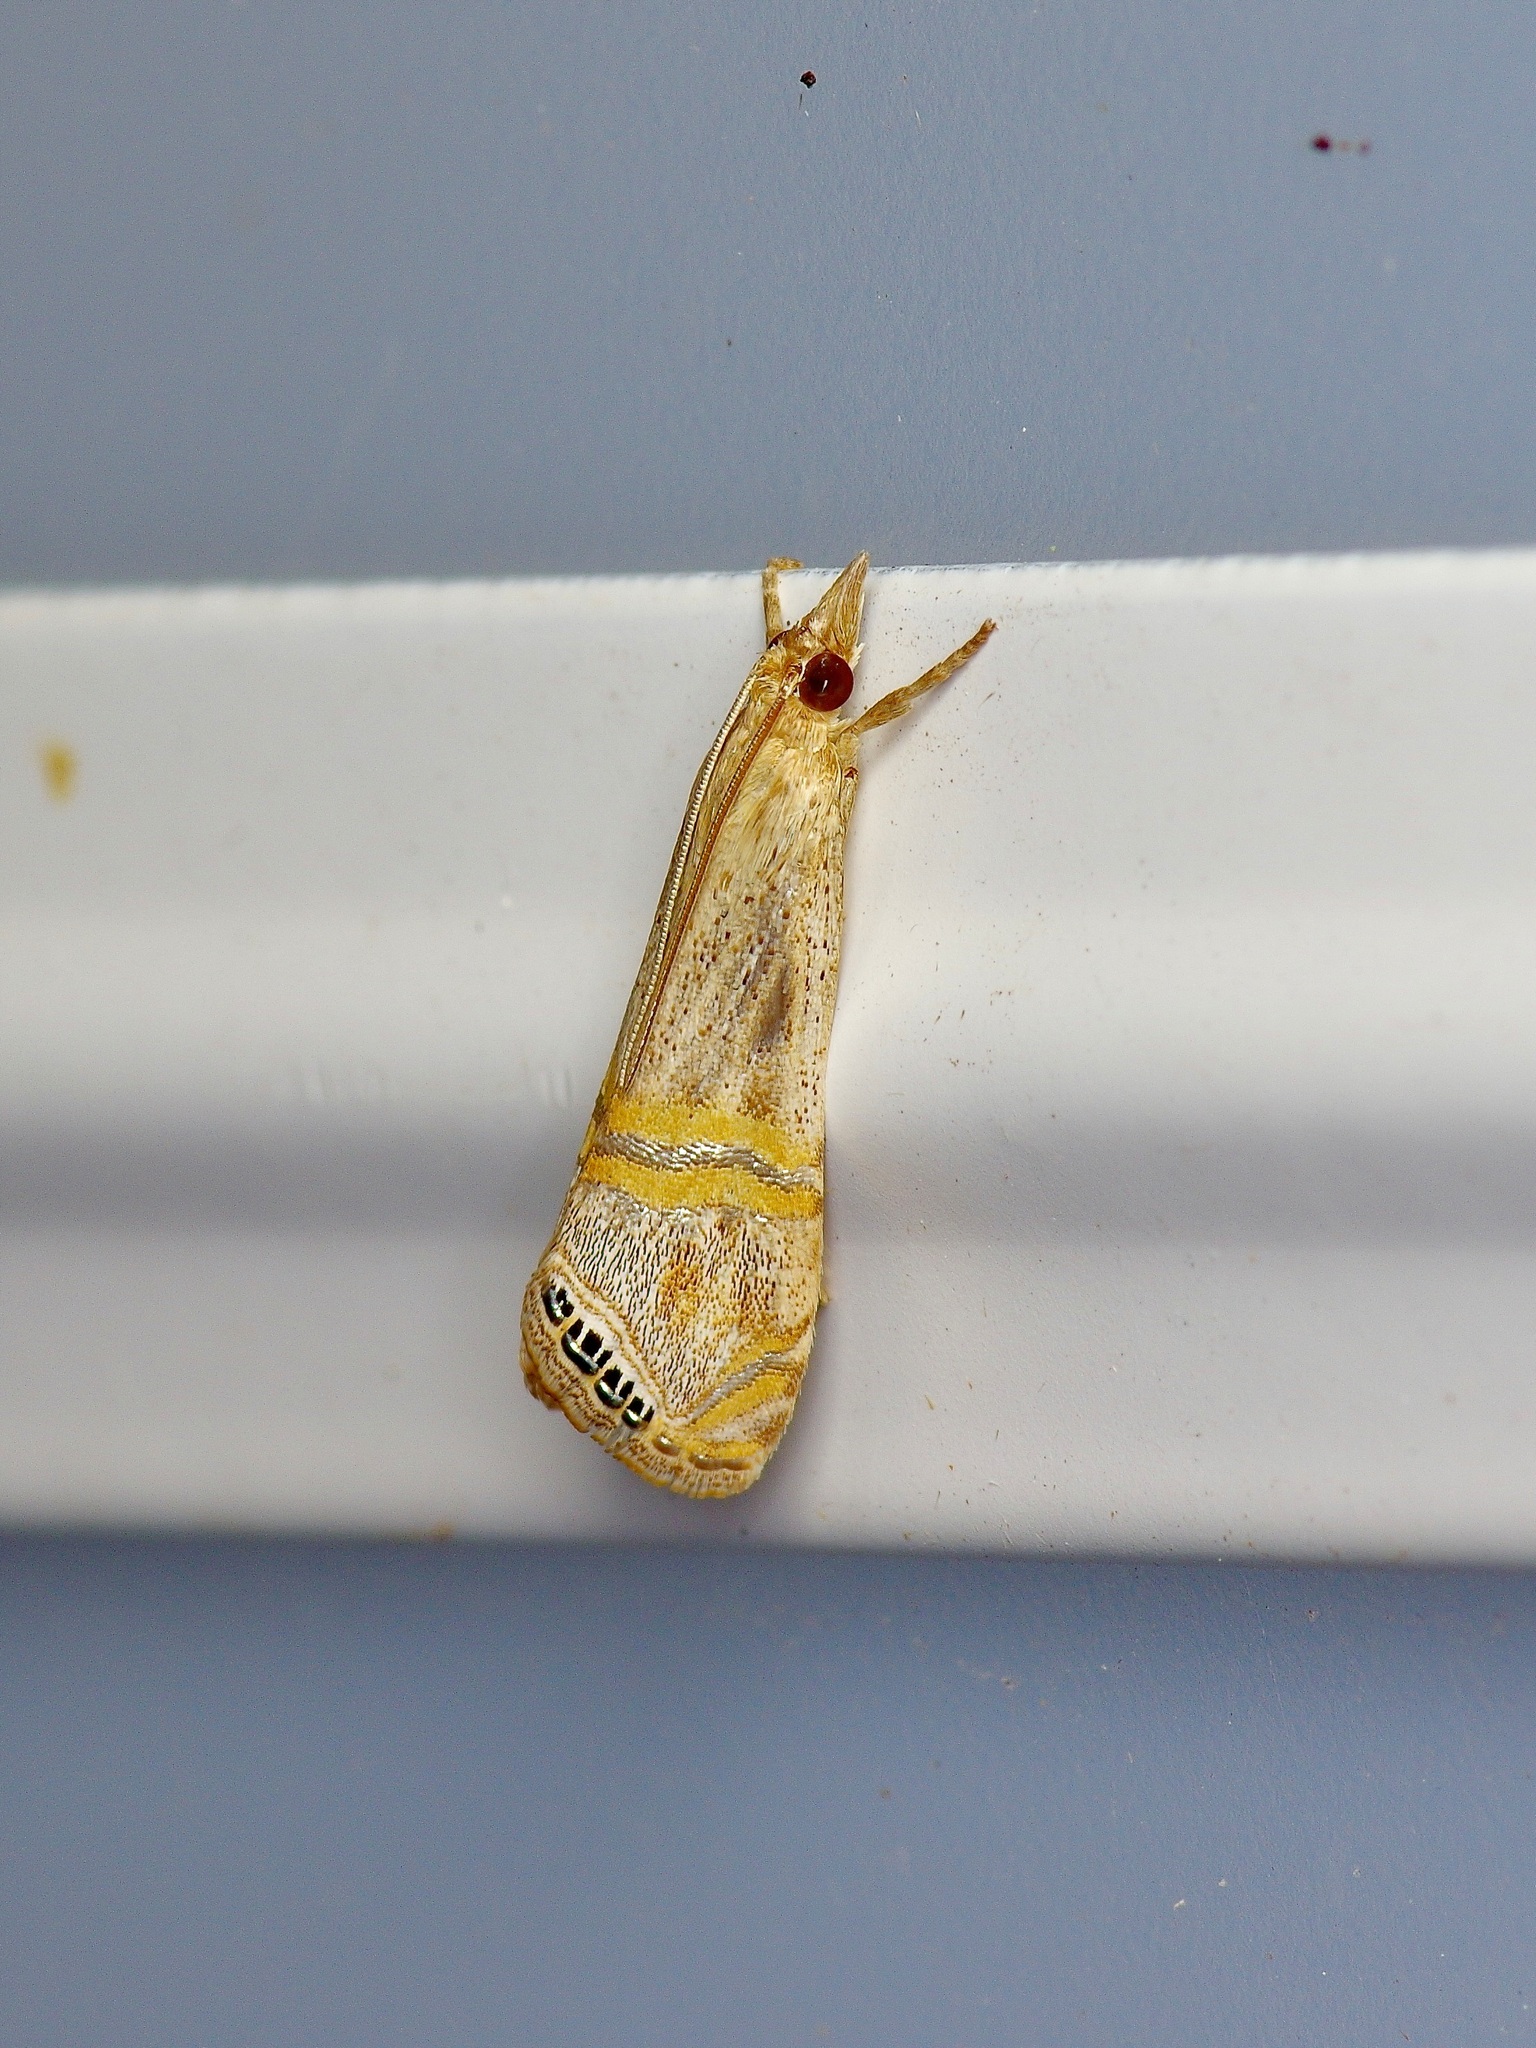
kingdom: Animalia
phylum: Arthropoda
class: Insecta
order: Lepidoptera
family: Crambidae
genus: Euchromius
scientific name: Euchromius ocellea
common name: Necklace veneer moth
